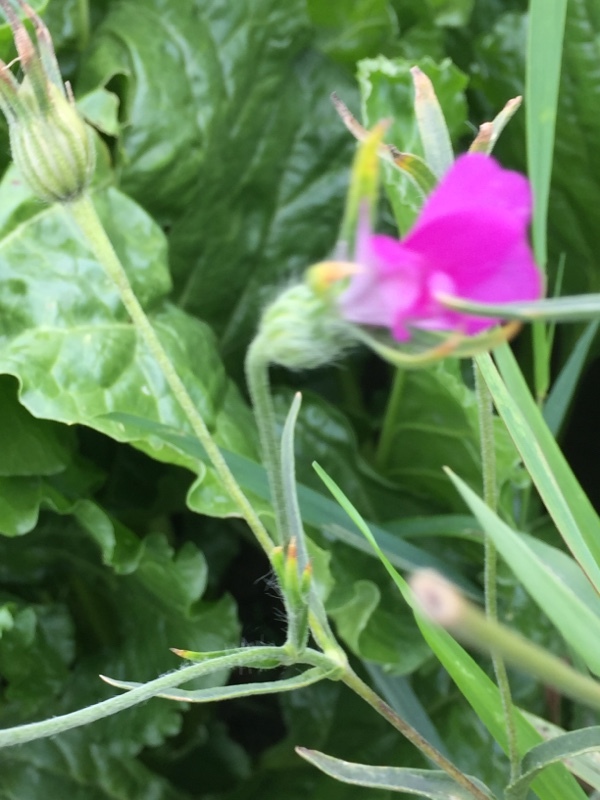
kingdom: Plantae
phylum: Tracheophyta
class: Magnoliopsida
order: Caryophyllales
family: Caryophyllaceae
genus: Agrostemma
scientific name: Agrostemma githago
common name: Common corncockle
